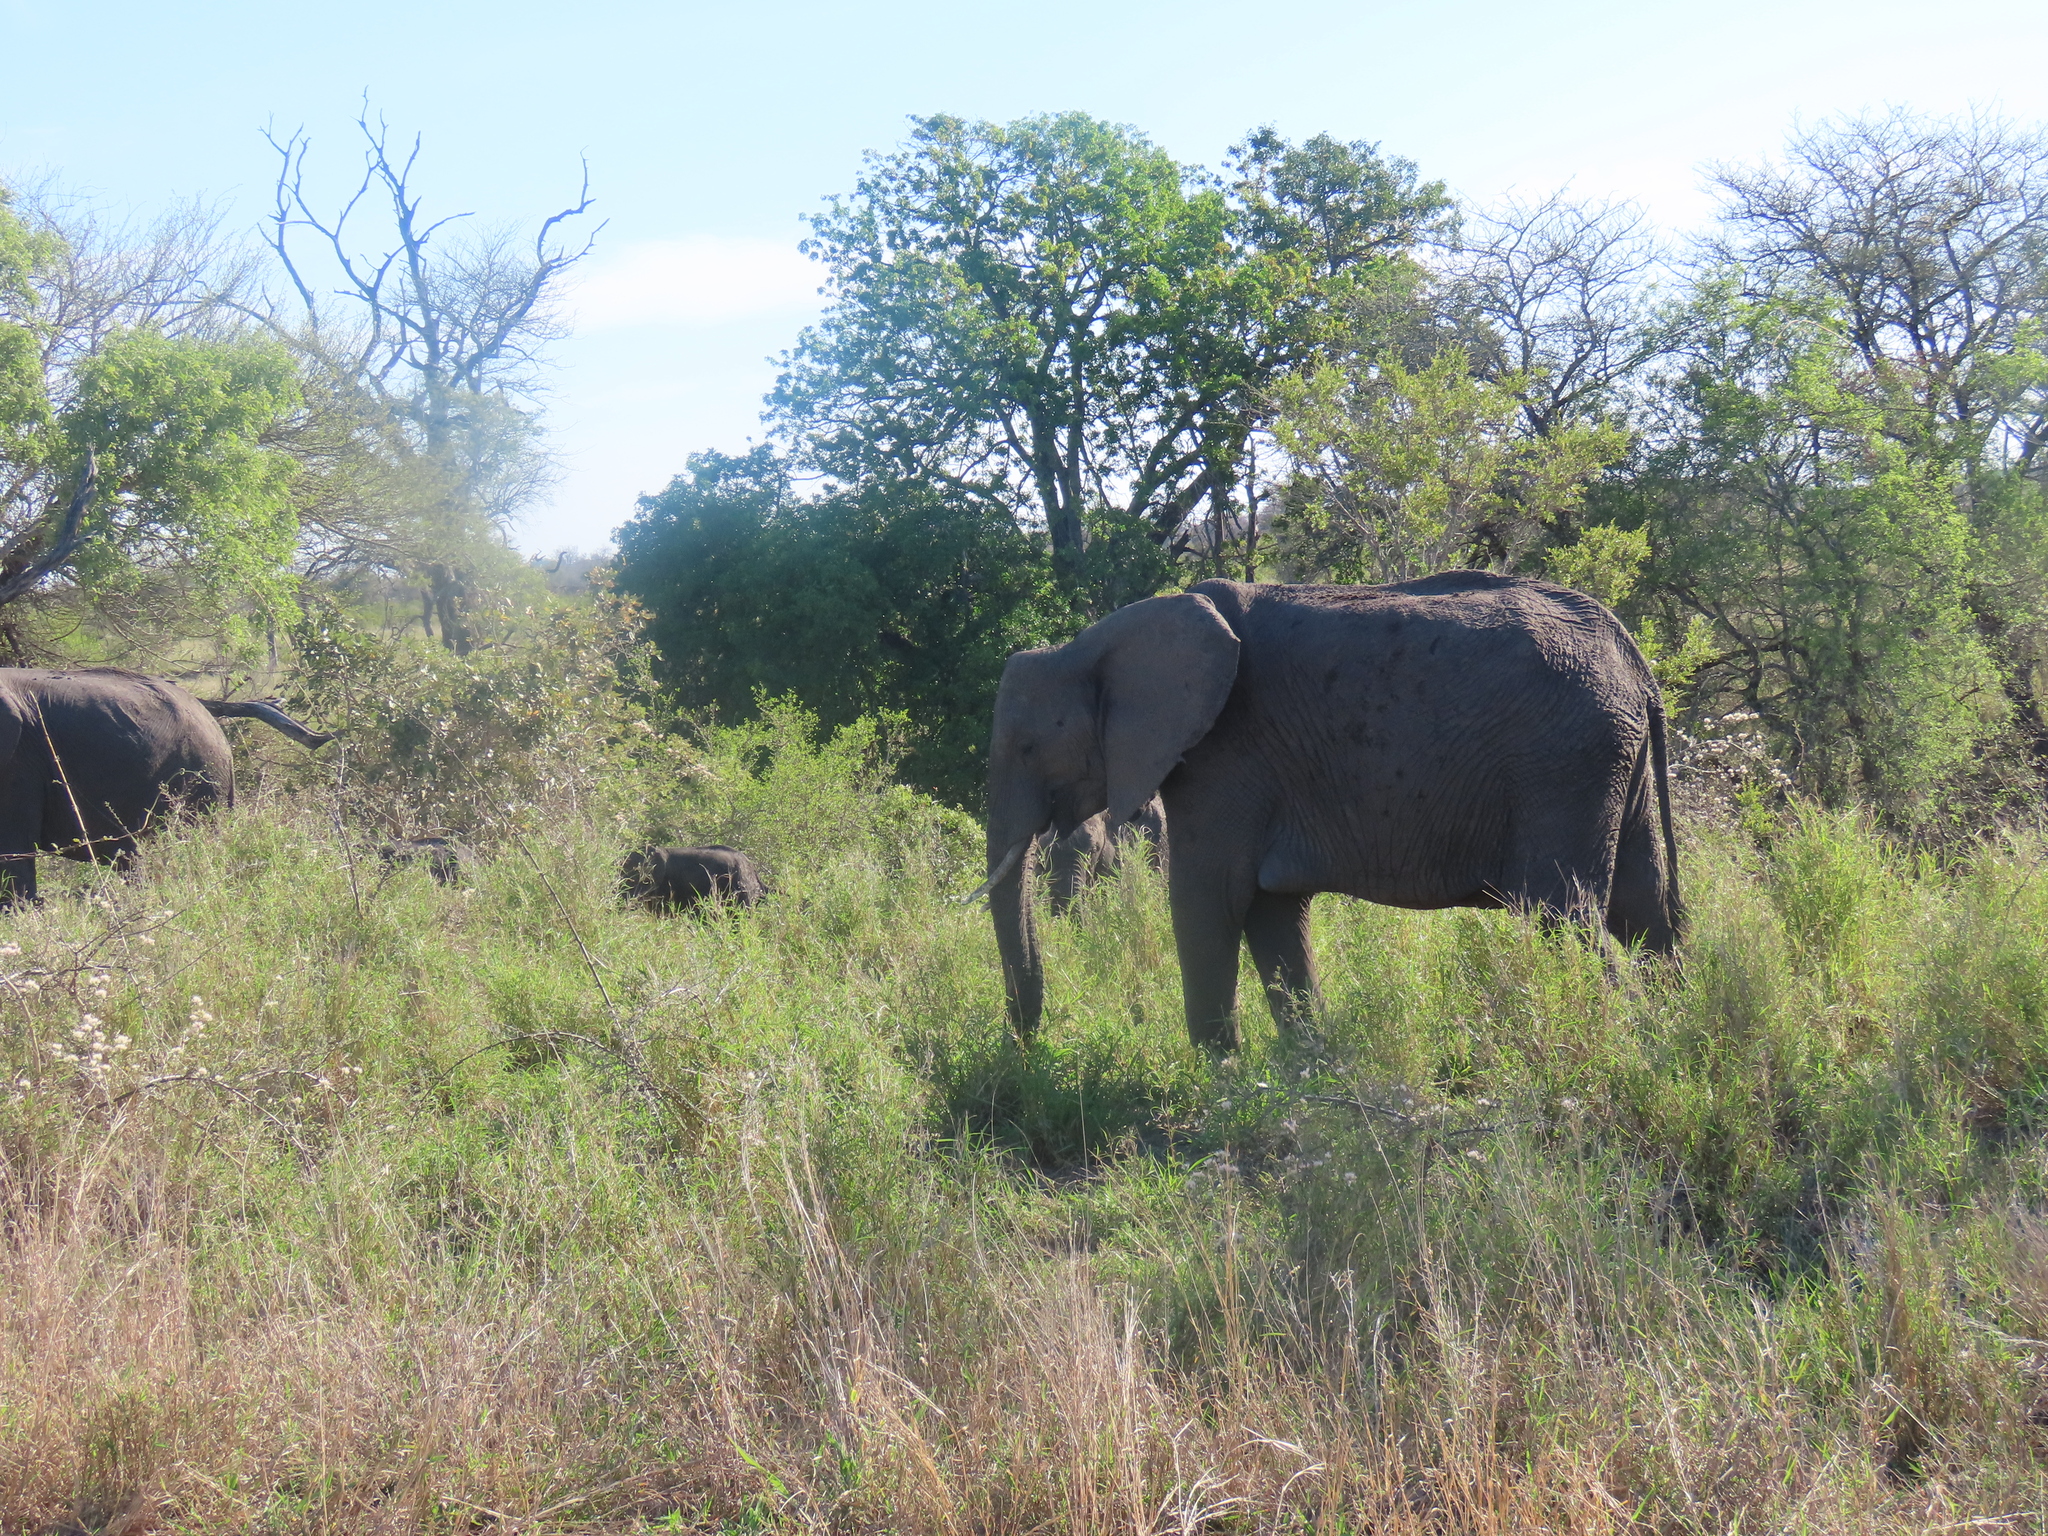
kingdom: Animalia
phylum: Chordata
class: Mammalia
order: Proboscidea
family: Elephantidae
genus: Loxodonta
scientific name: Loxodonta africana
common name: African elephant
